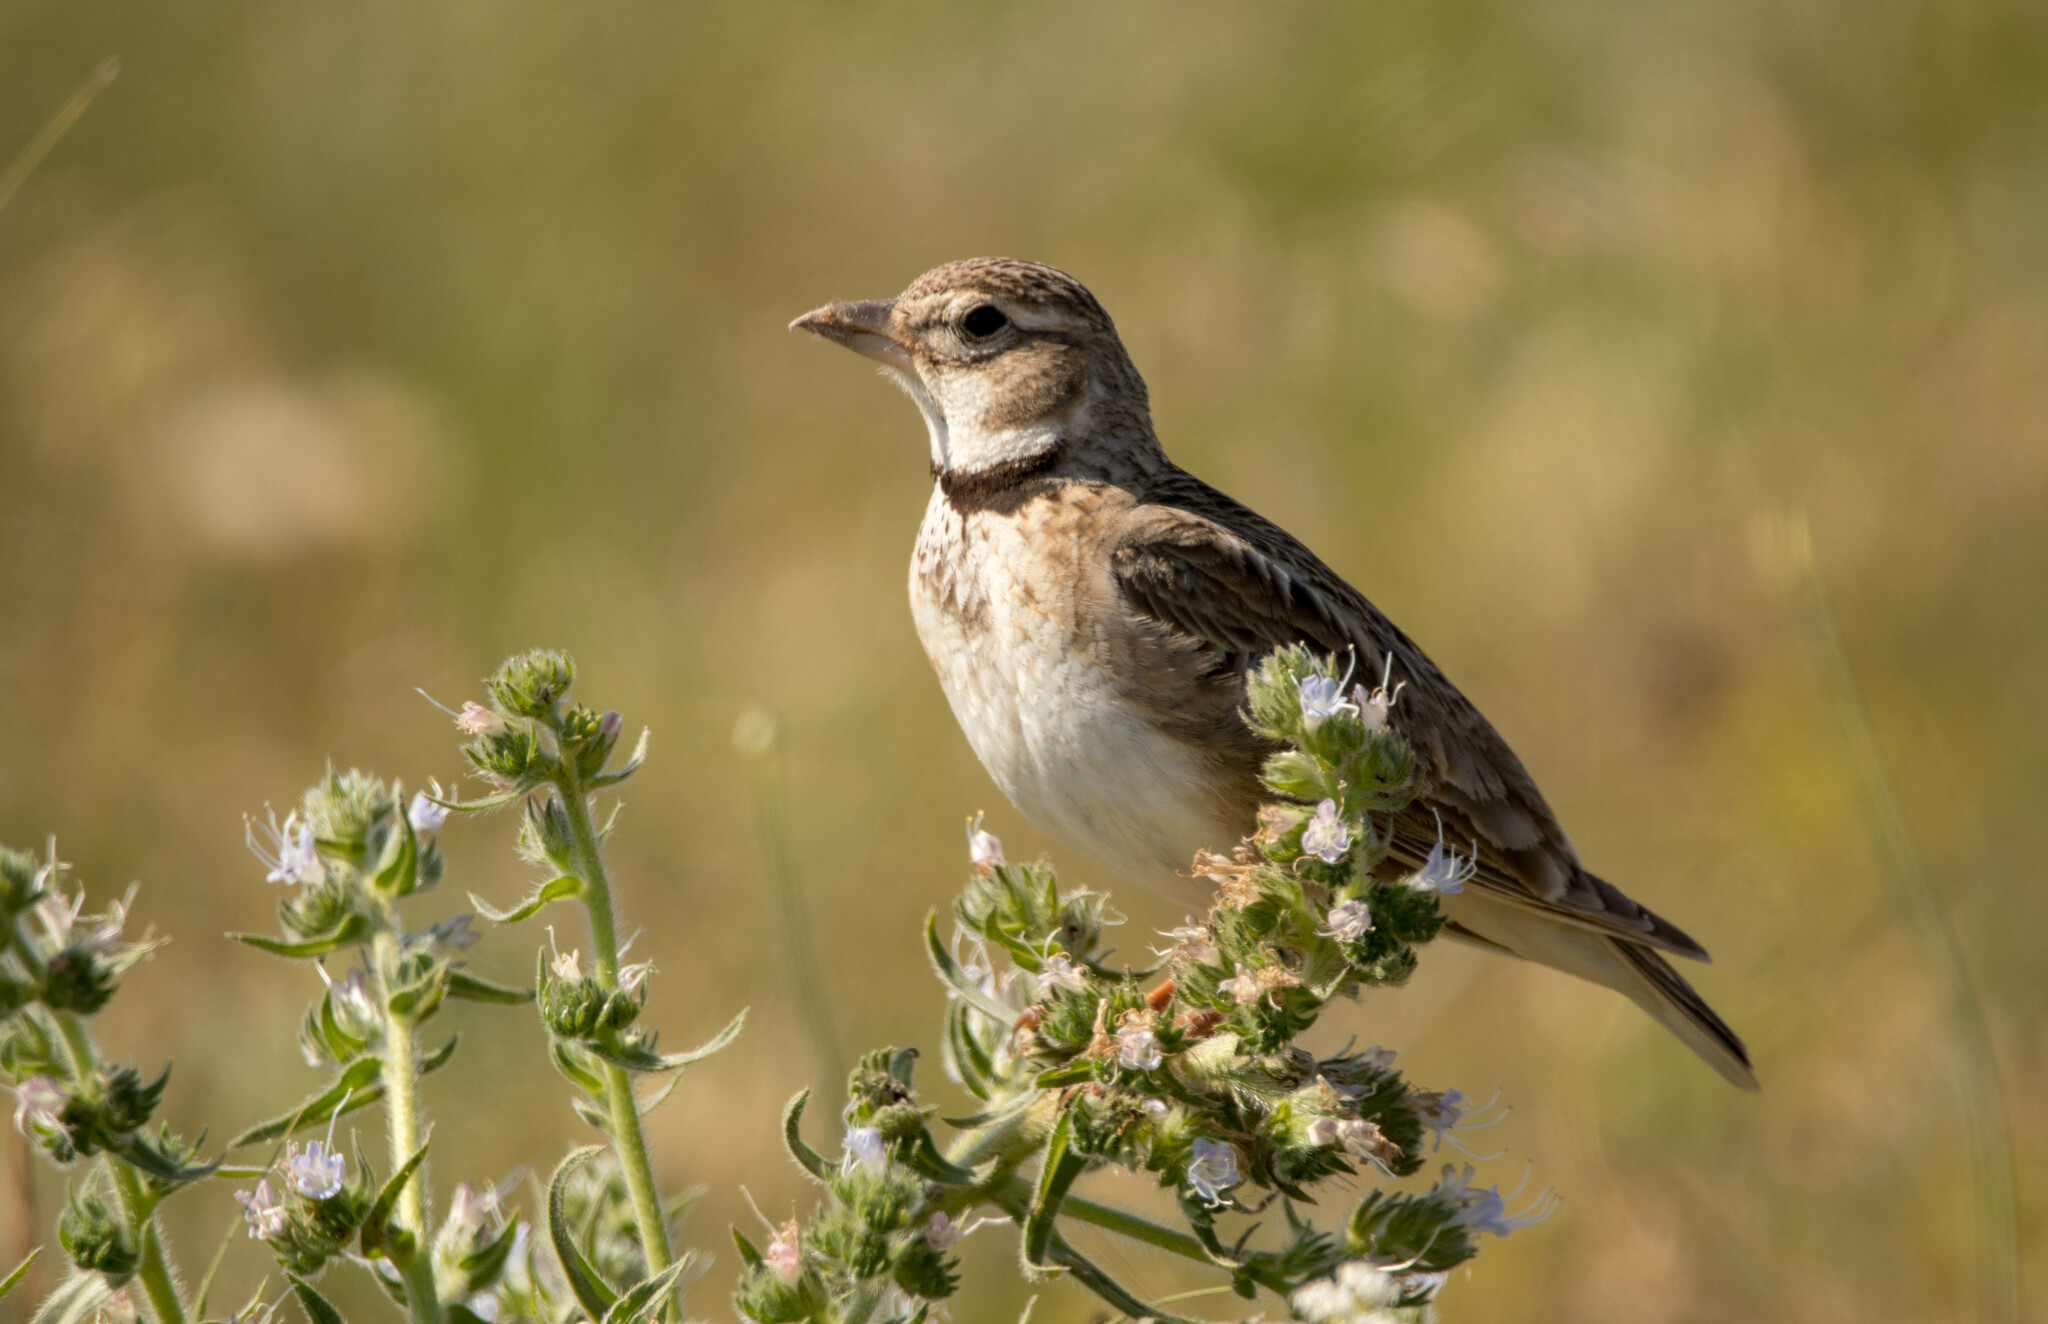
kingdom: Animalia
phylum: Chordata
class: Aves
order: Passeriformes
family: Alaudidae
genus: Melanocorypha
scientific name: Melanocorypha calandra
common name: Calandra lark
